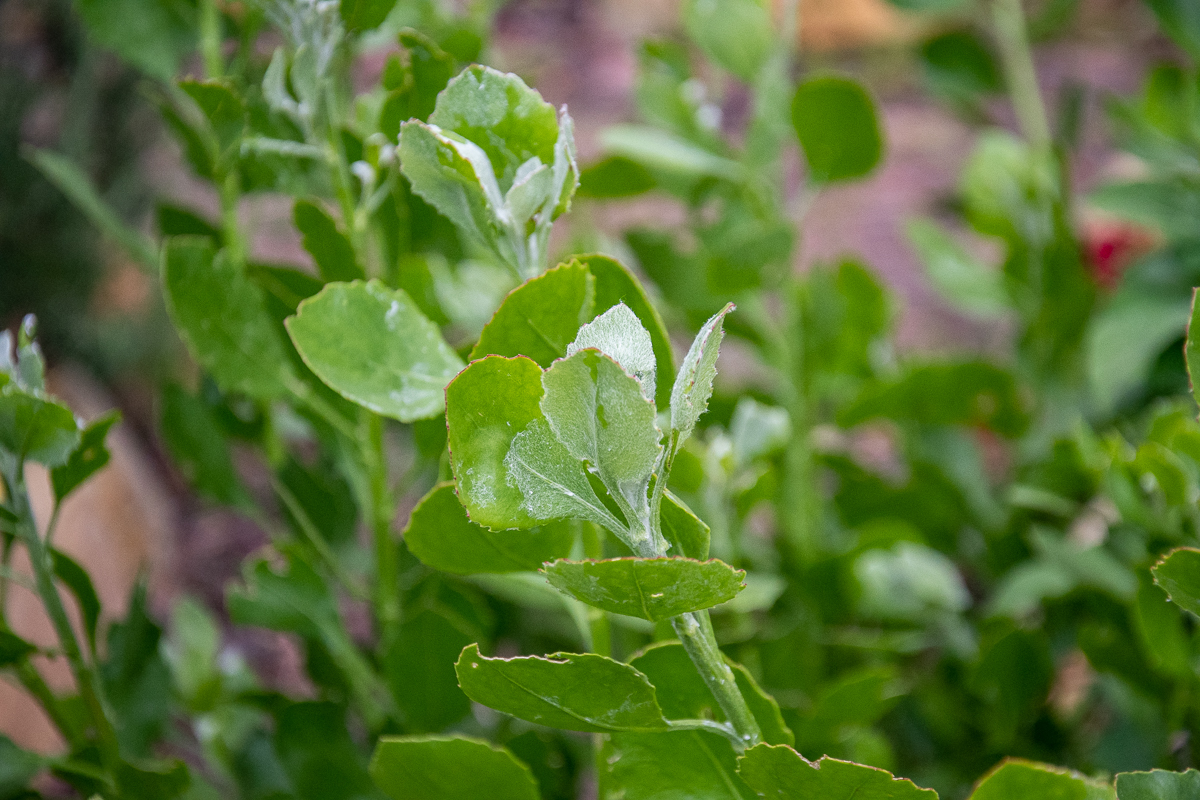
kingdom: Plantae
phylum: Tracheophyta
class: Magnoliopsida
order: Asterales
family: Asteraceae
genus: Osteospermum
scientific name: Osteospermum moniliferum
